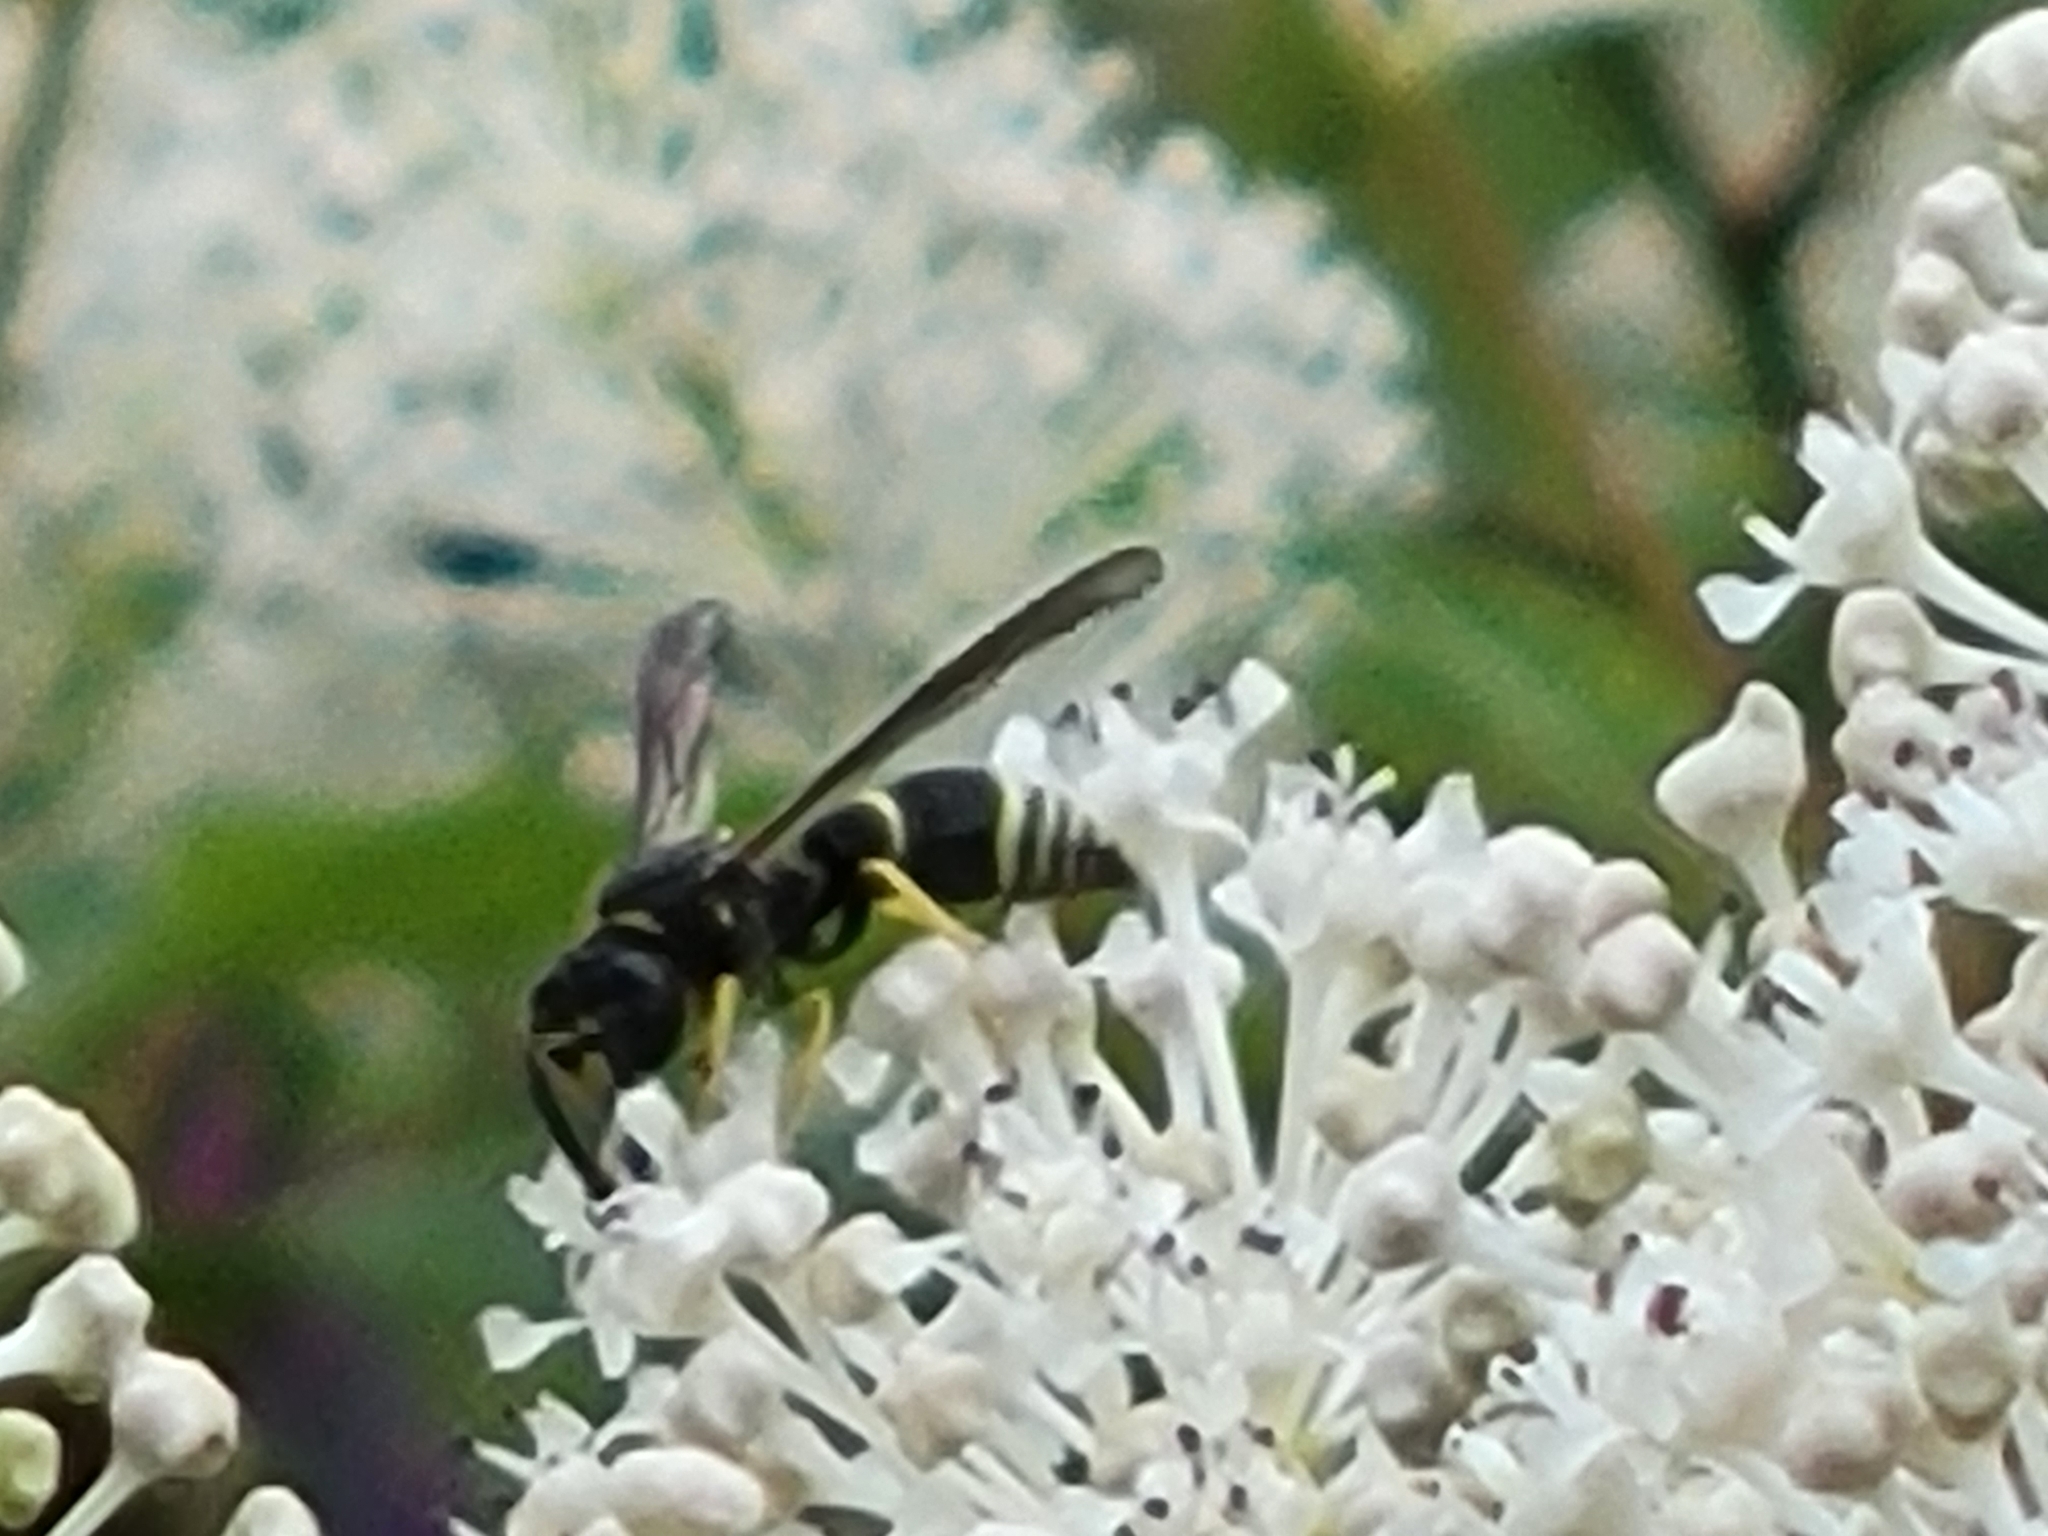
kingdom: Animalia
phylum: Arthropoda
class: Insecta
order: Hymenoptera
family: Vespidae
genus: Ancistrocerus
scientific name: Ancistrocerus
